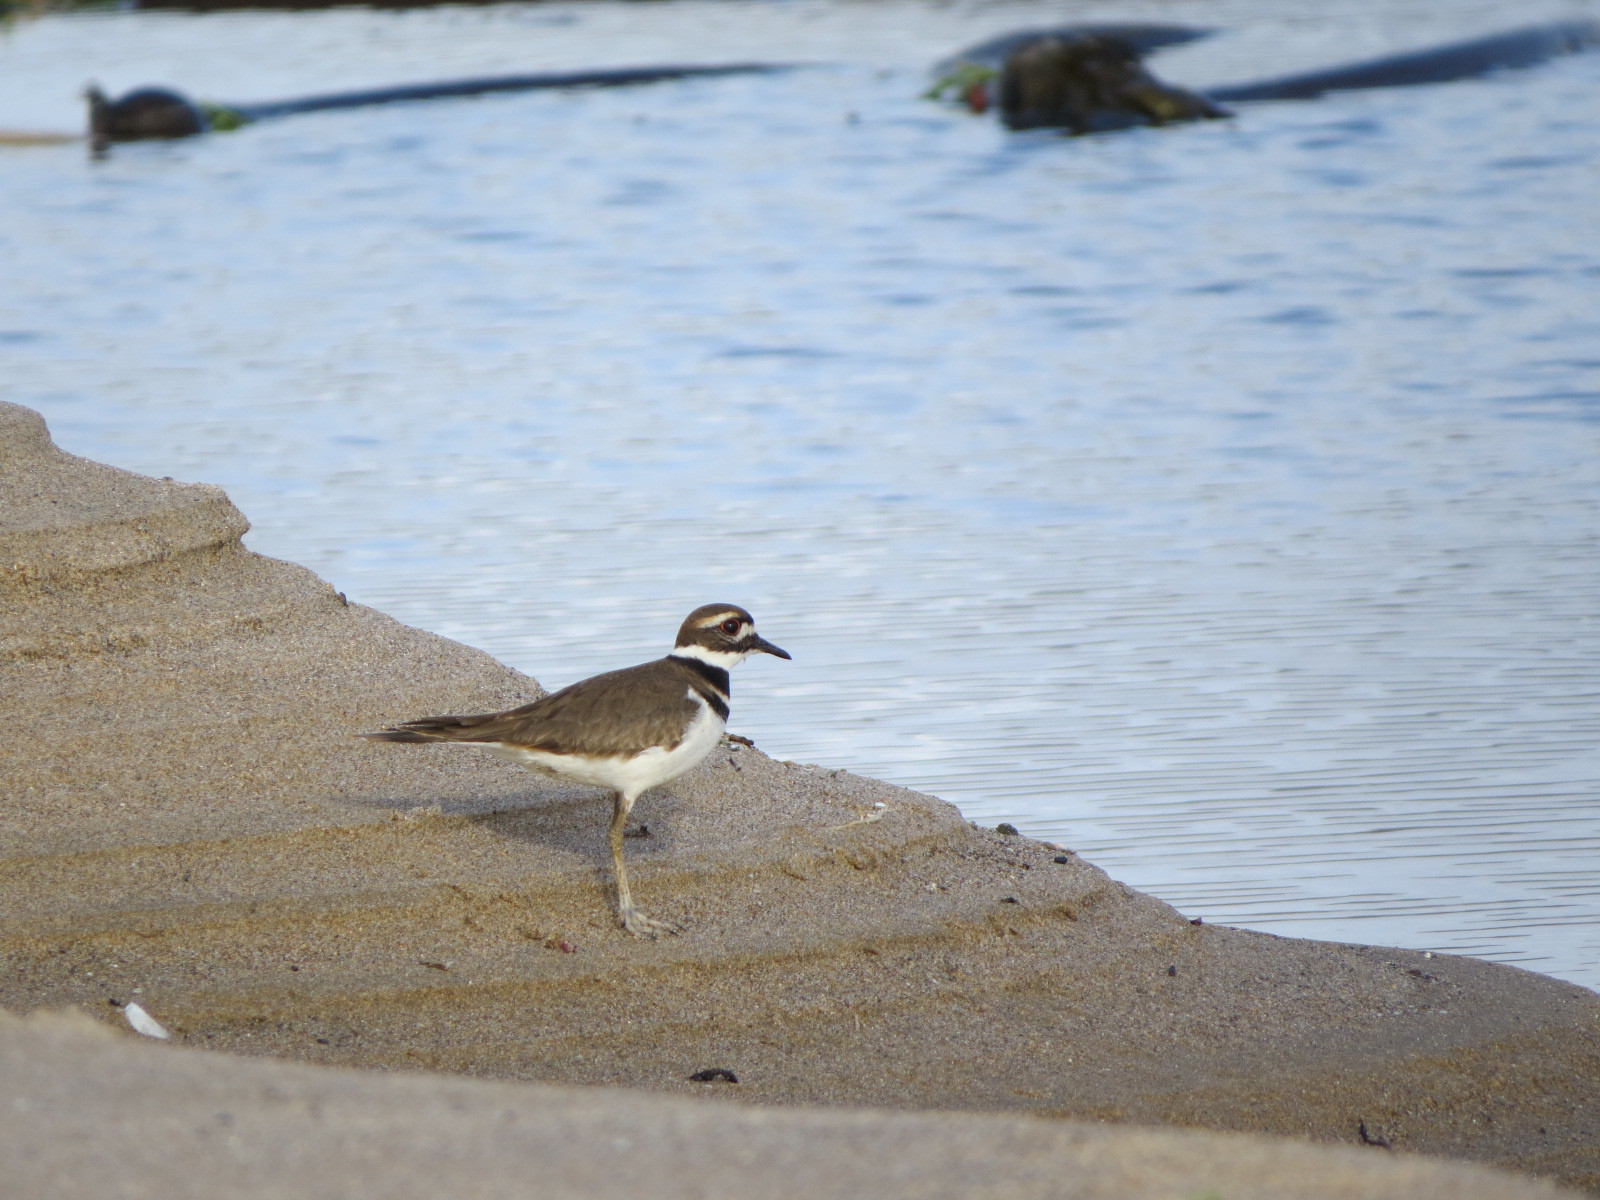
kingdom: Animalia
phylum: Chordata
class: Aves
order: Charadriiformes
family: Charadriidae
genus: Charadrius
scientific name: Charadrius vociferus
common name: Killdeer
